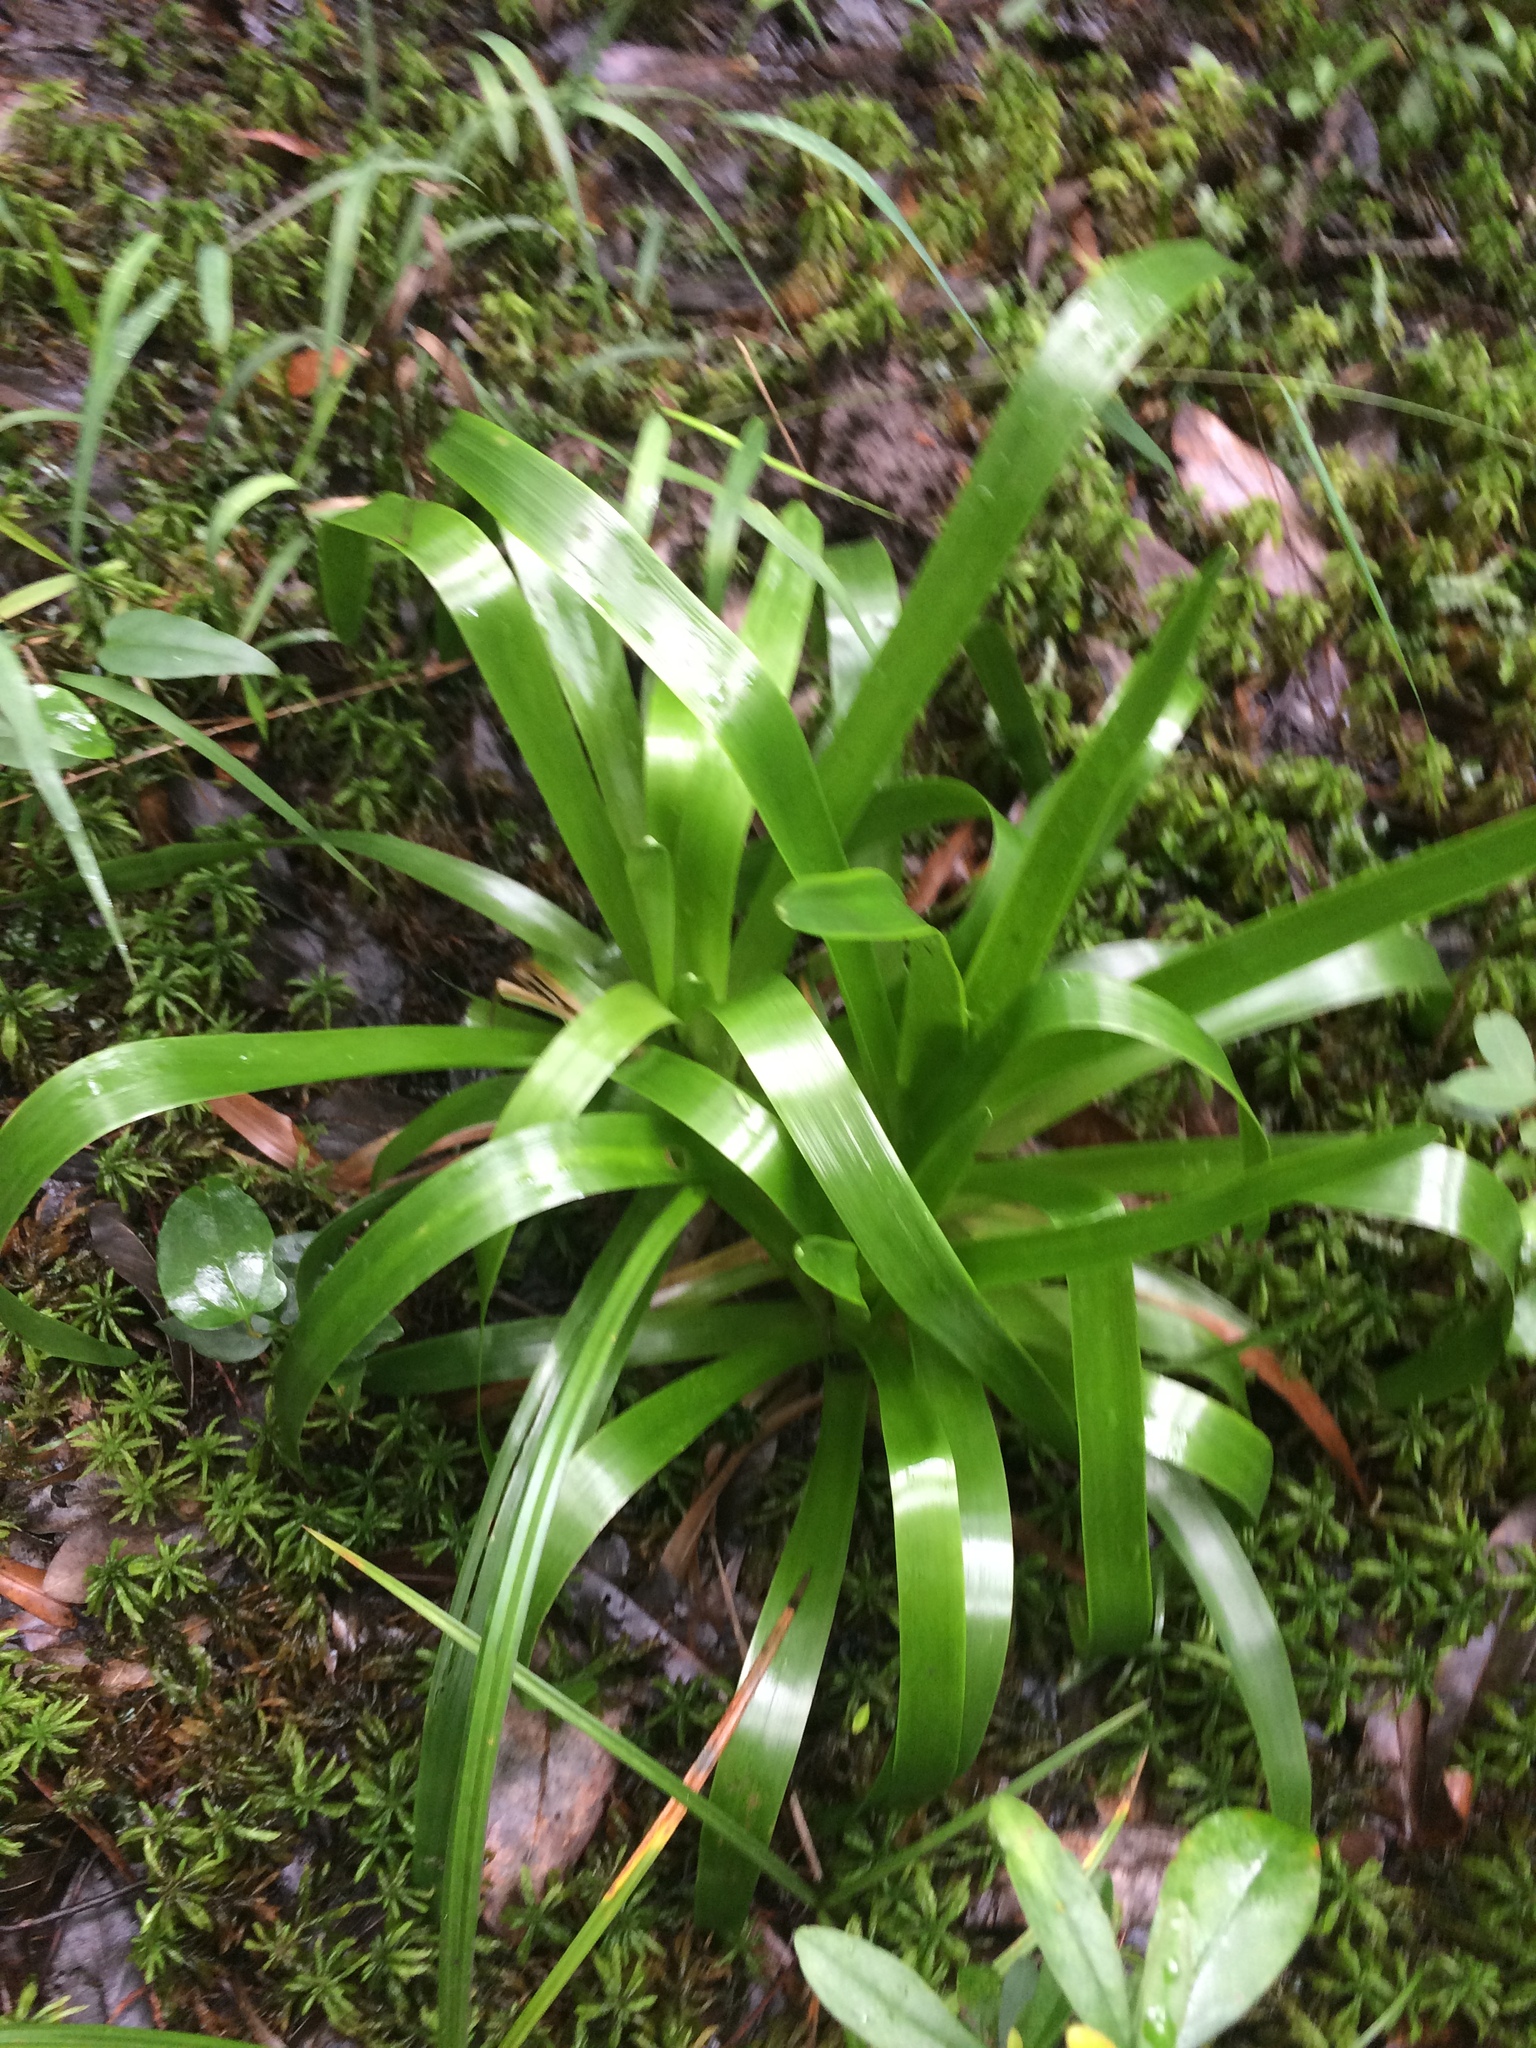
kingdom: Plantae
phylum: Tracheophyta
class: Liliopsida
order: Poales
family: Eriocaulaceae
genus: Eriocaulon
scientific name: Eriocaulon decangulare
